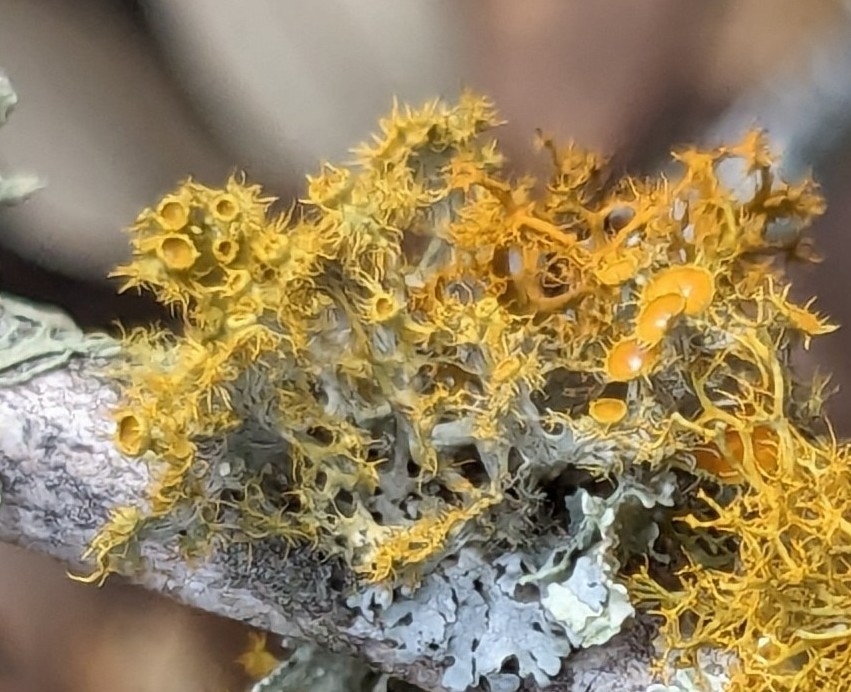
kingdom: Fungi
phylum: Ascomycota
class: Lecanoromycetes
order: Teloschistales
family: Teloschistaceae
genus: Niorma
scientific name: Niorma chrysophthalma
